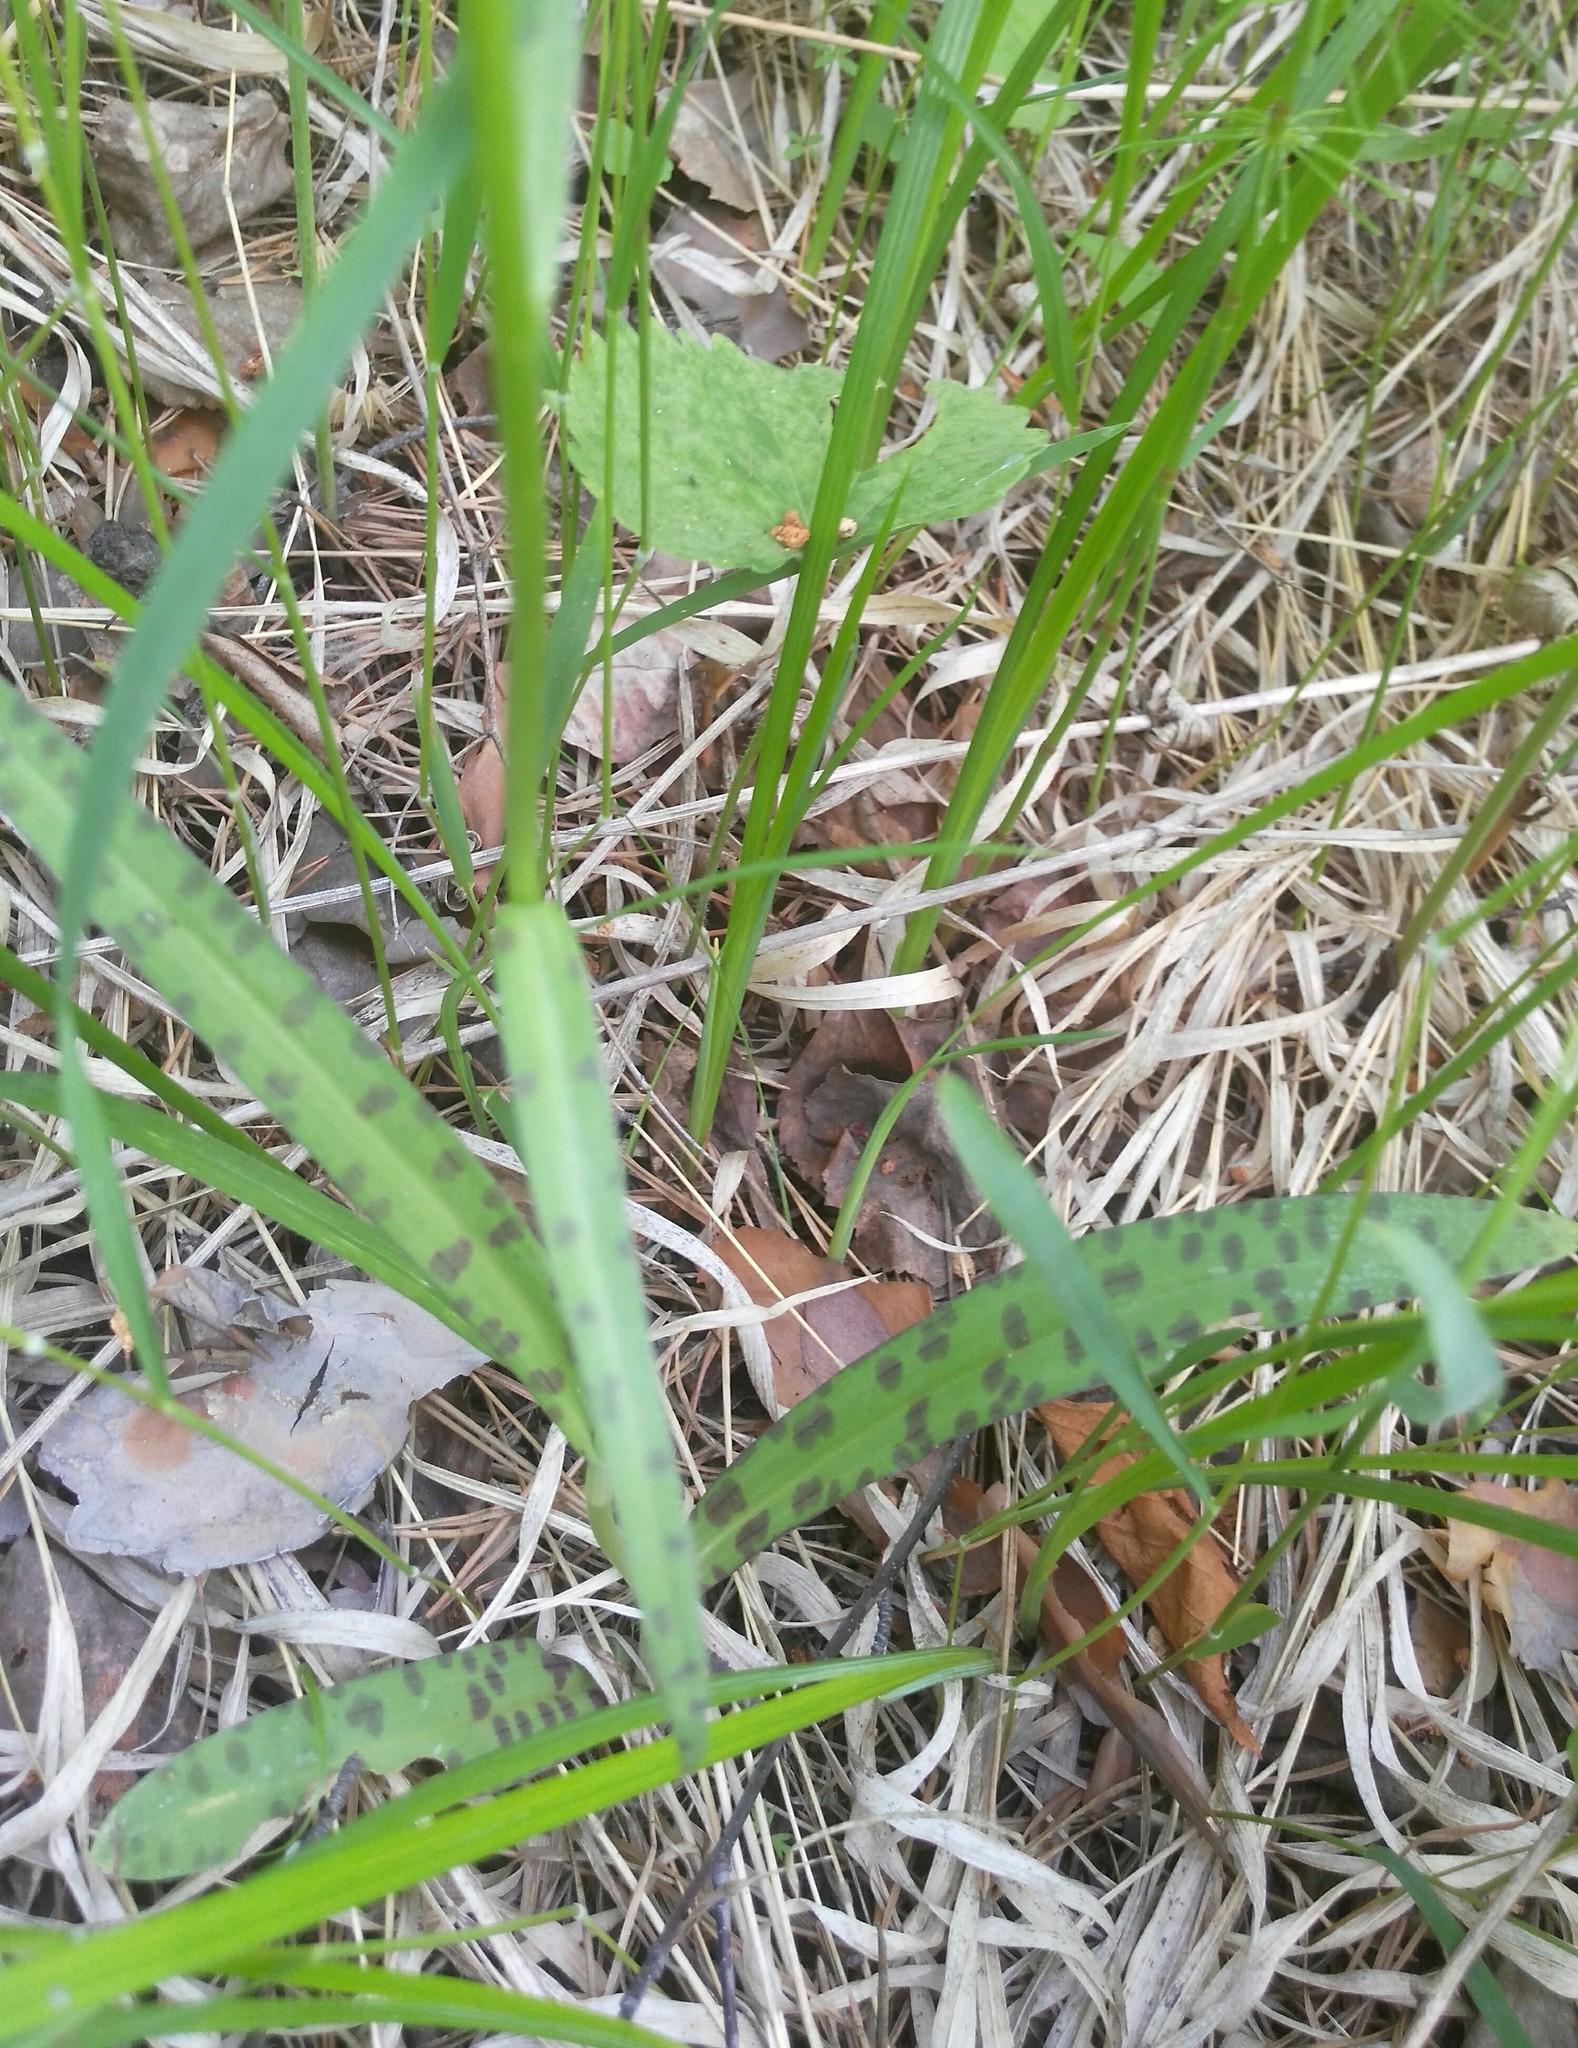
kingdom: Plantae
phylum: Tracheophyta
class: Liliopsida
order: Asparagales
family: Orchidaceae
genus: Dactylorhiza
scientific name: Dactylorhiza maculata
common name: Heath spotted-orchid
